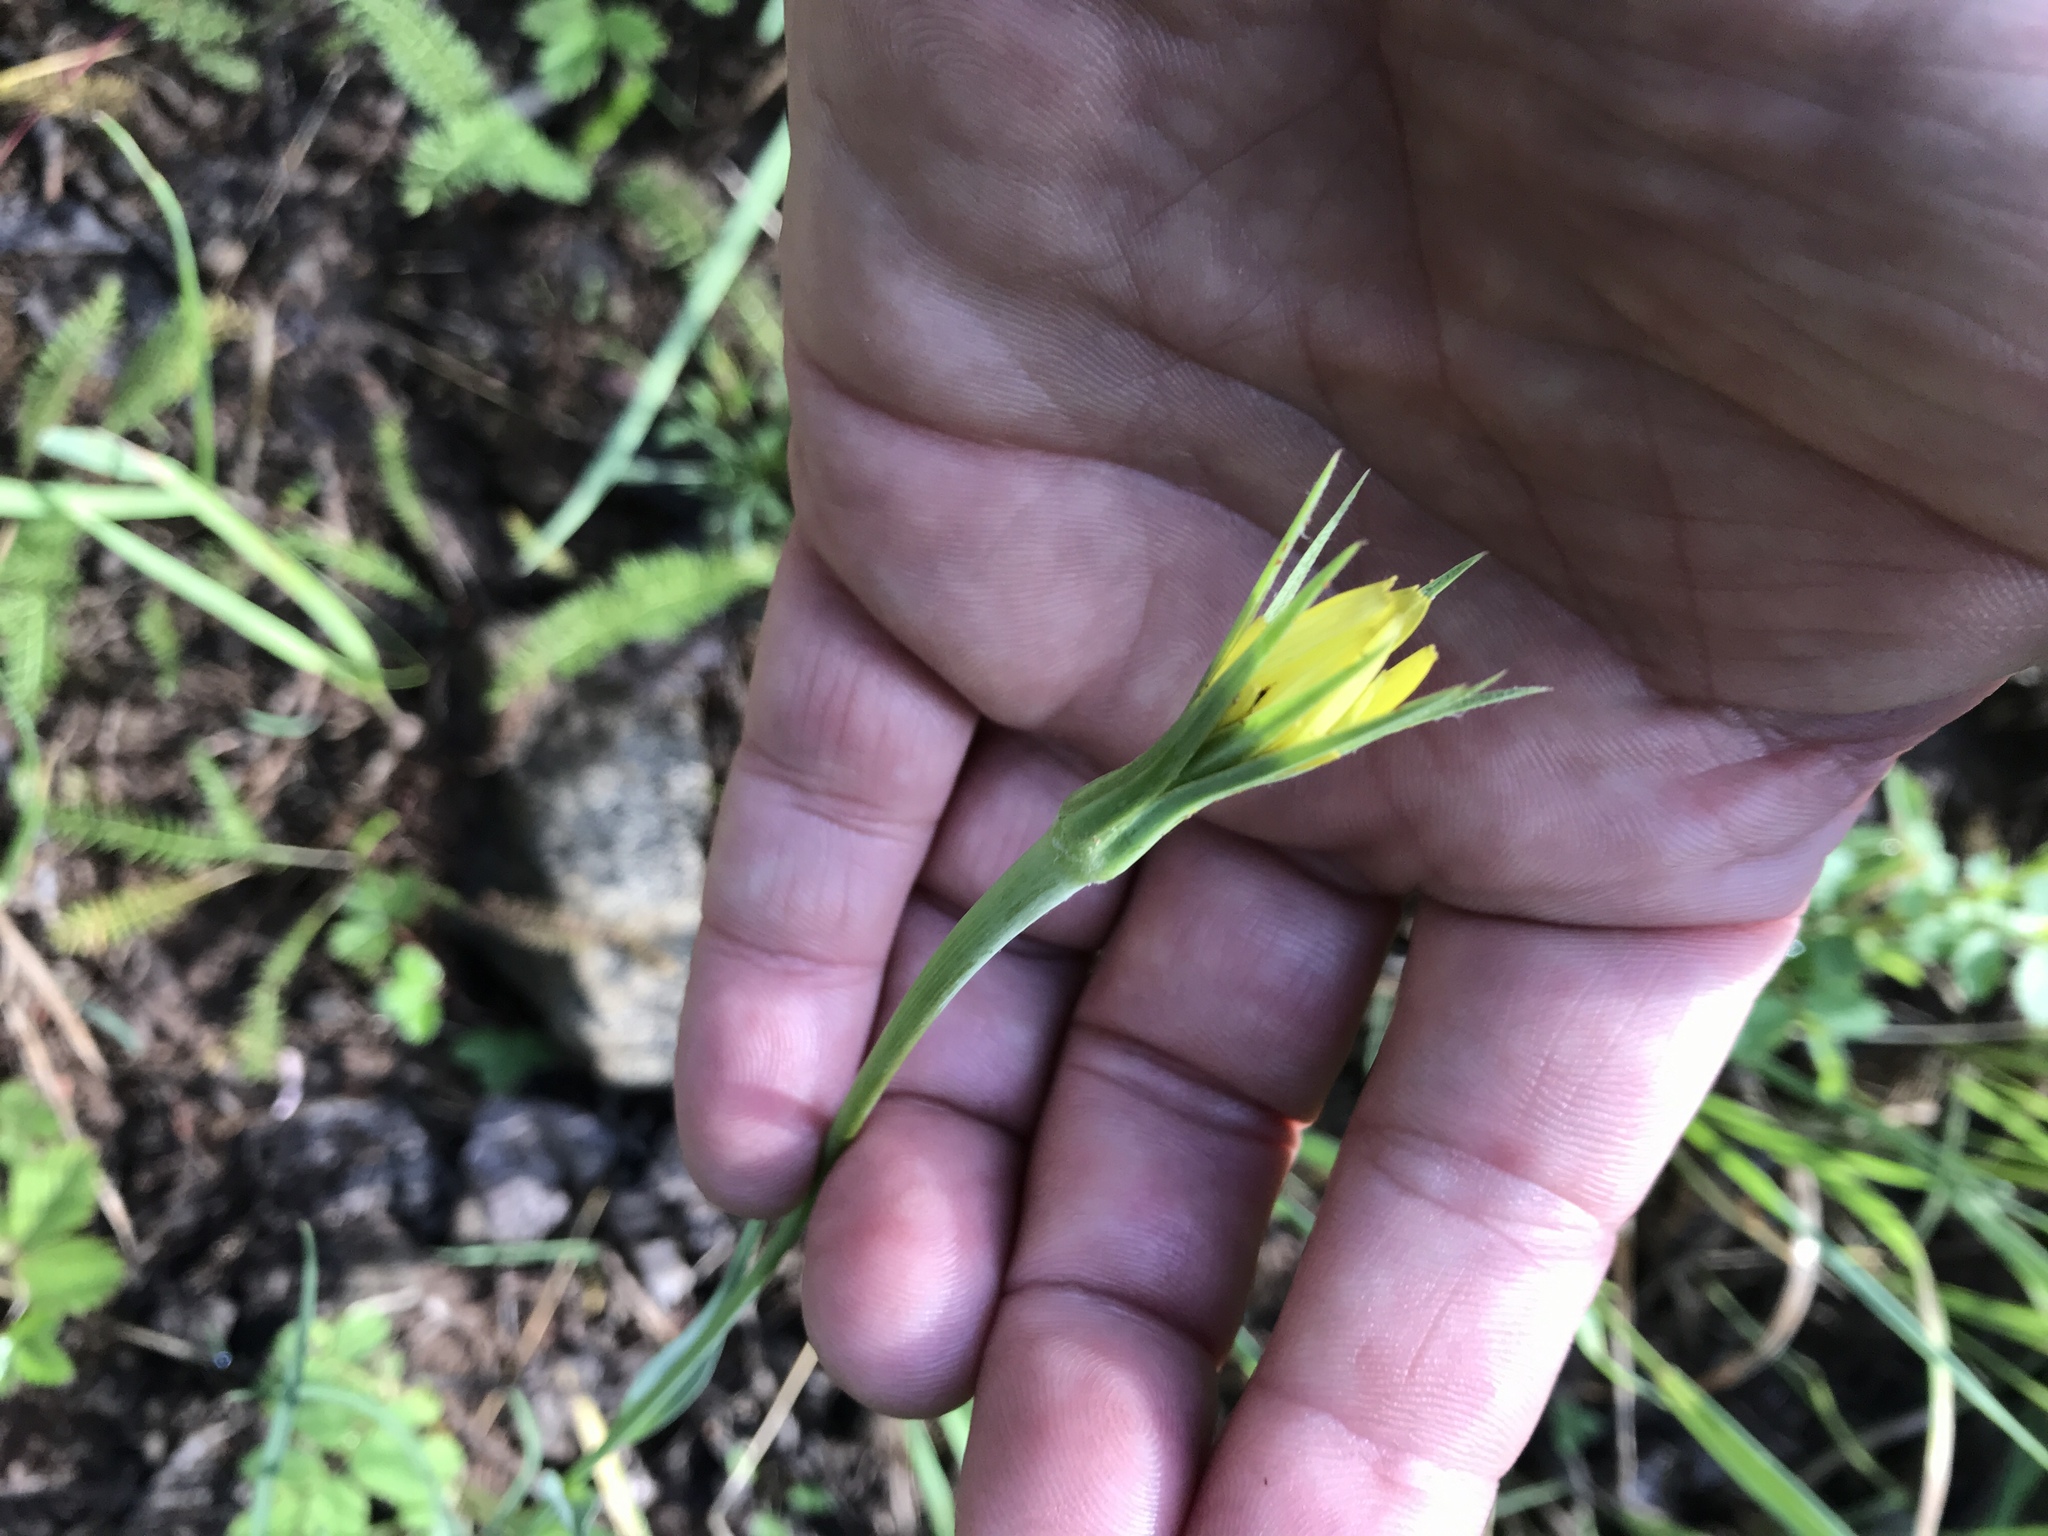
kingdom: Plantae
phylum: Tracheophyta
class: Magnoliopsida
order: Asterales
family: Asteraceae
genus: Tragopogon
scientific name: Tragopogon dubius
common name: Yellow salsify
